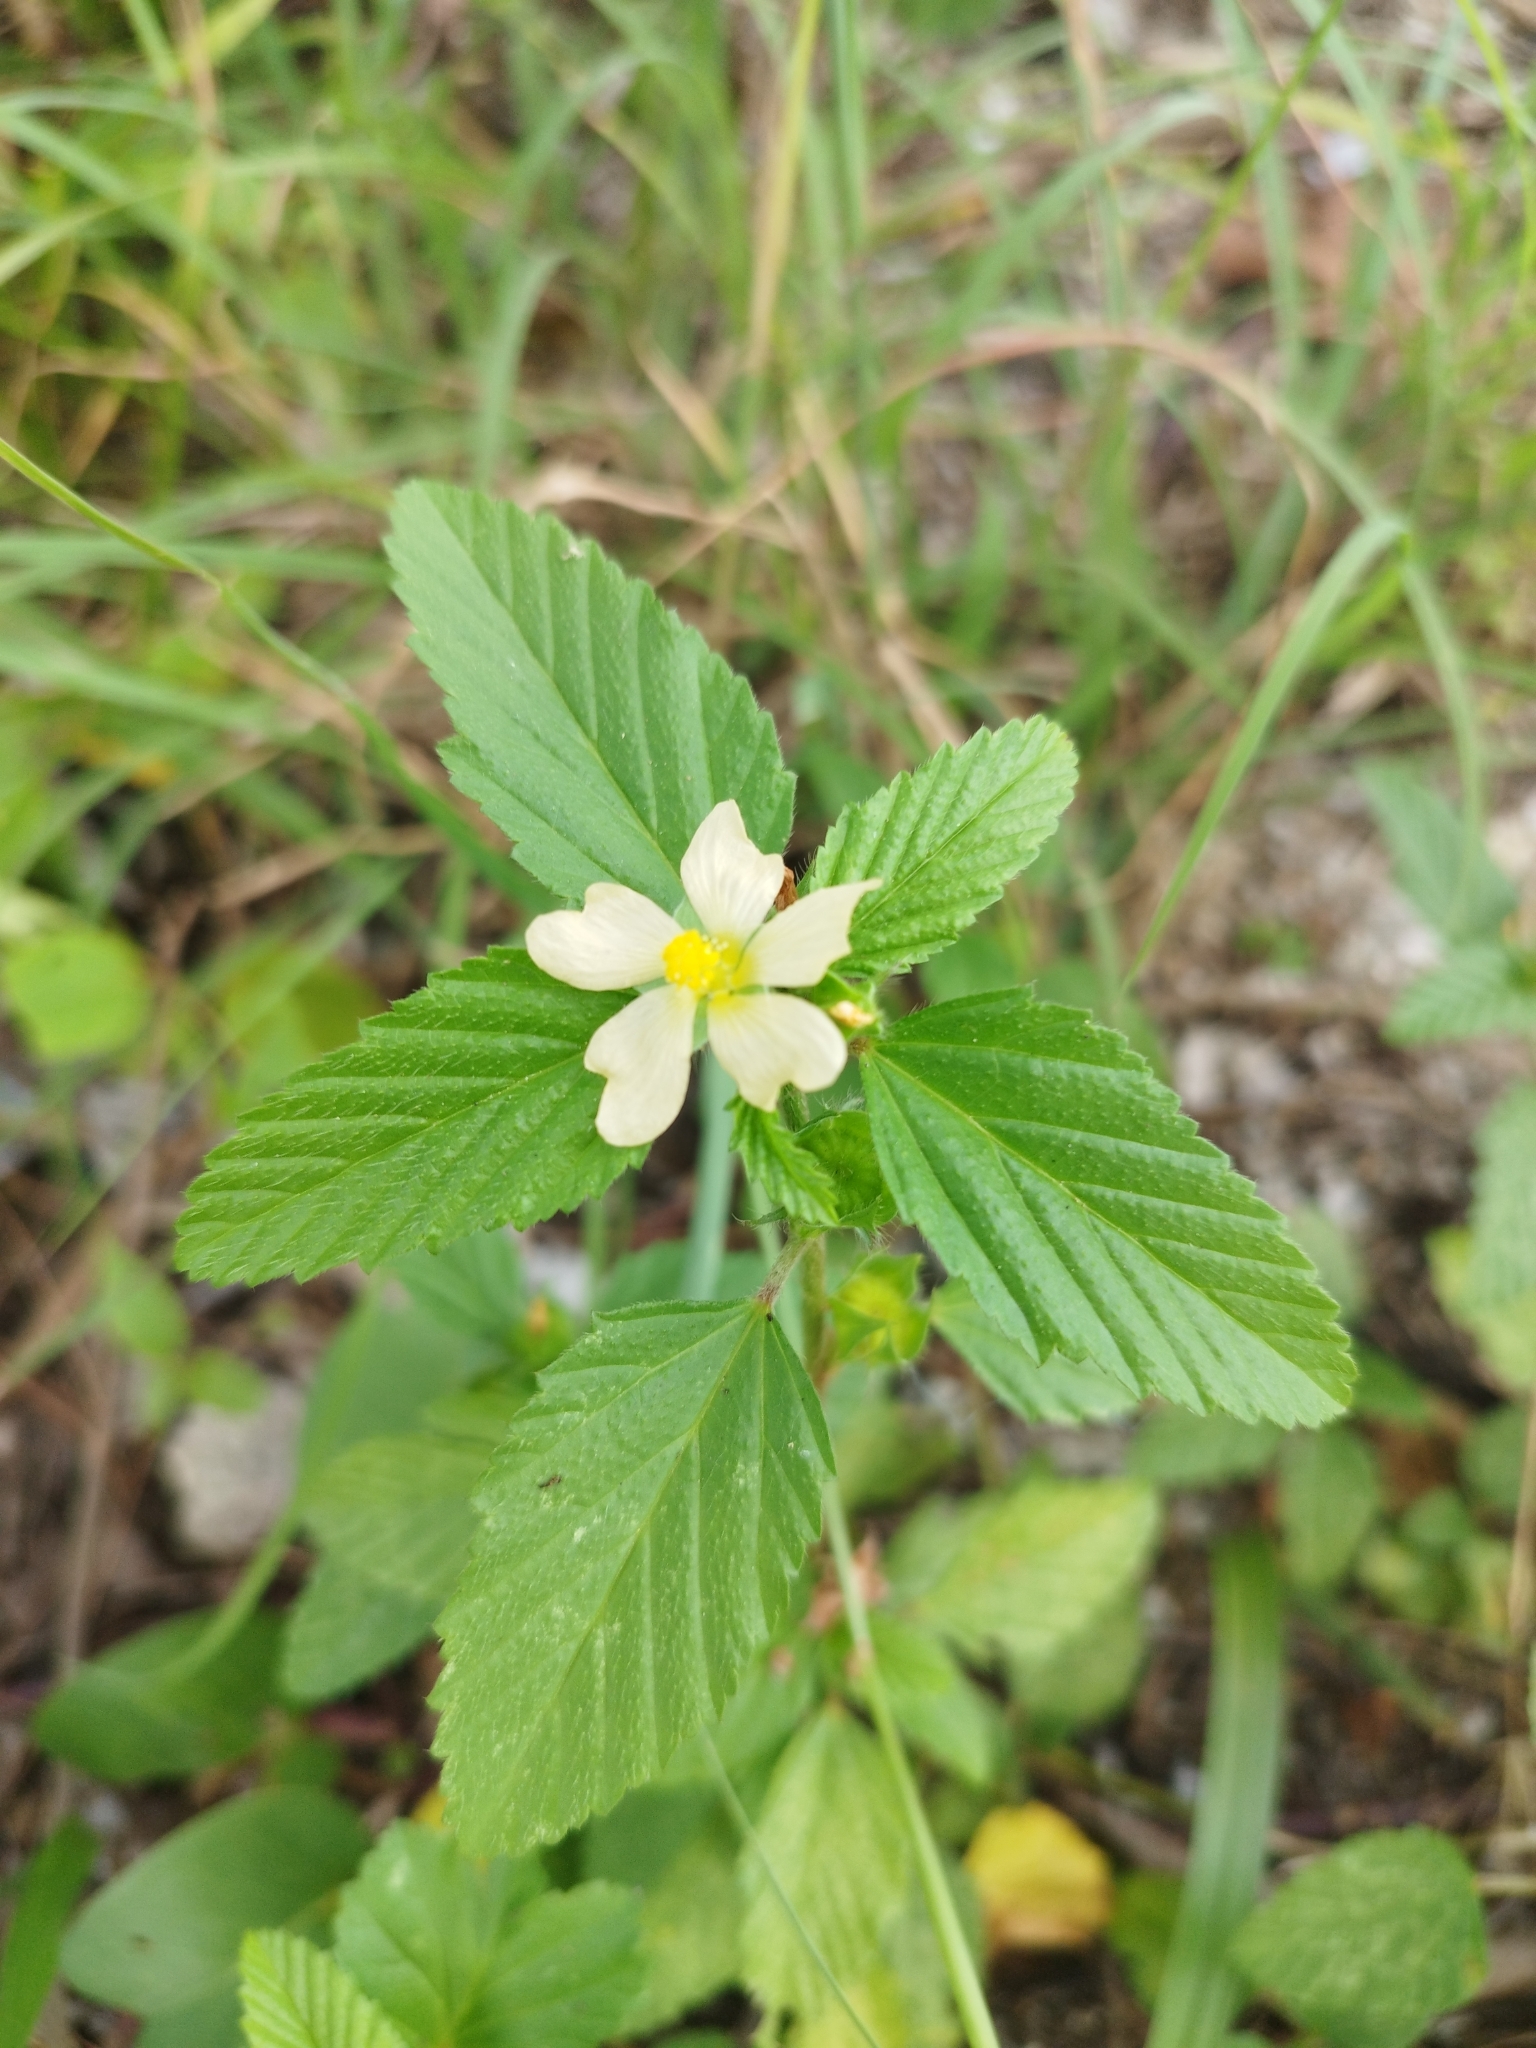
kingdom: Plantae
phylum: Tracheophyta
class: Magnoliopsida
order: Malvales
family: Malvaceae
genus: Malvastrum
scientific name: Malvastrum coromandelianum
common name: Threelobe false mallow
